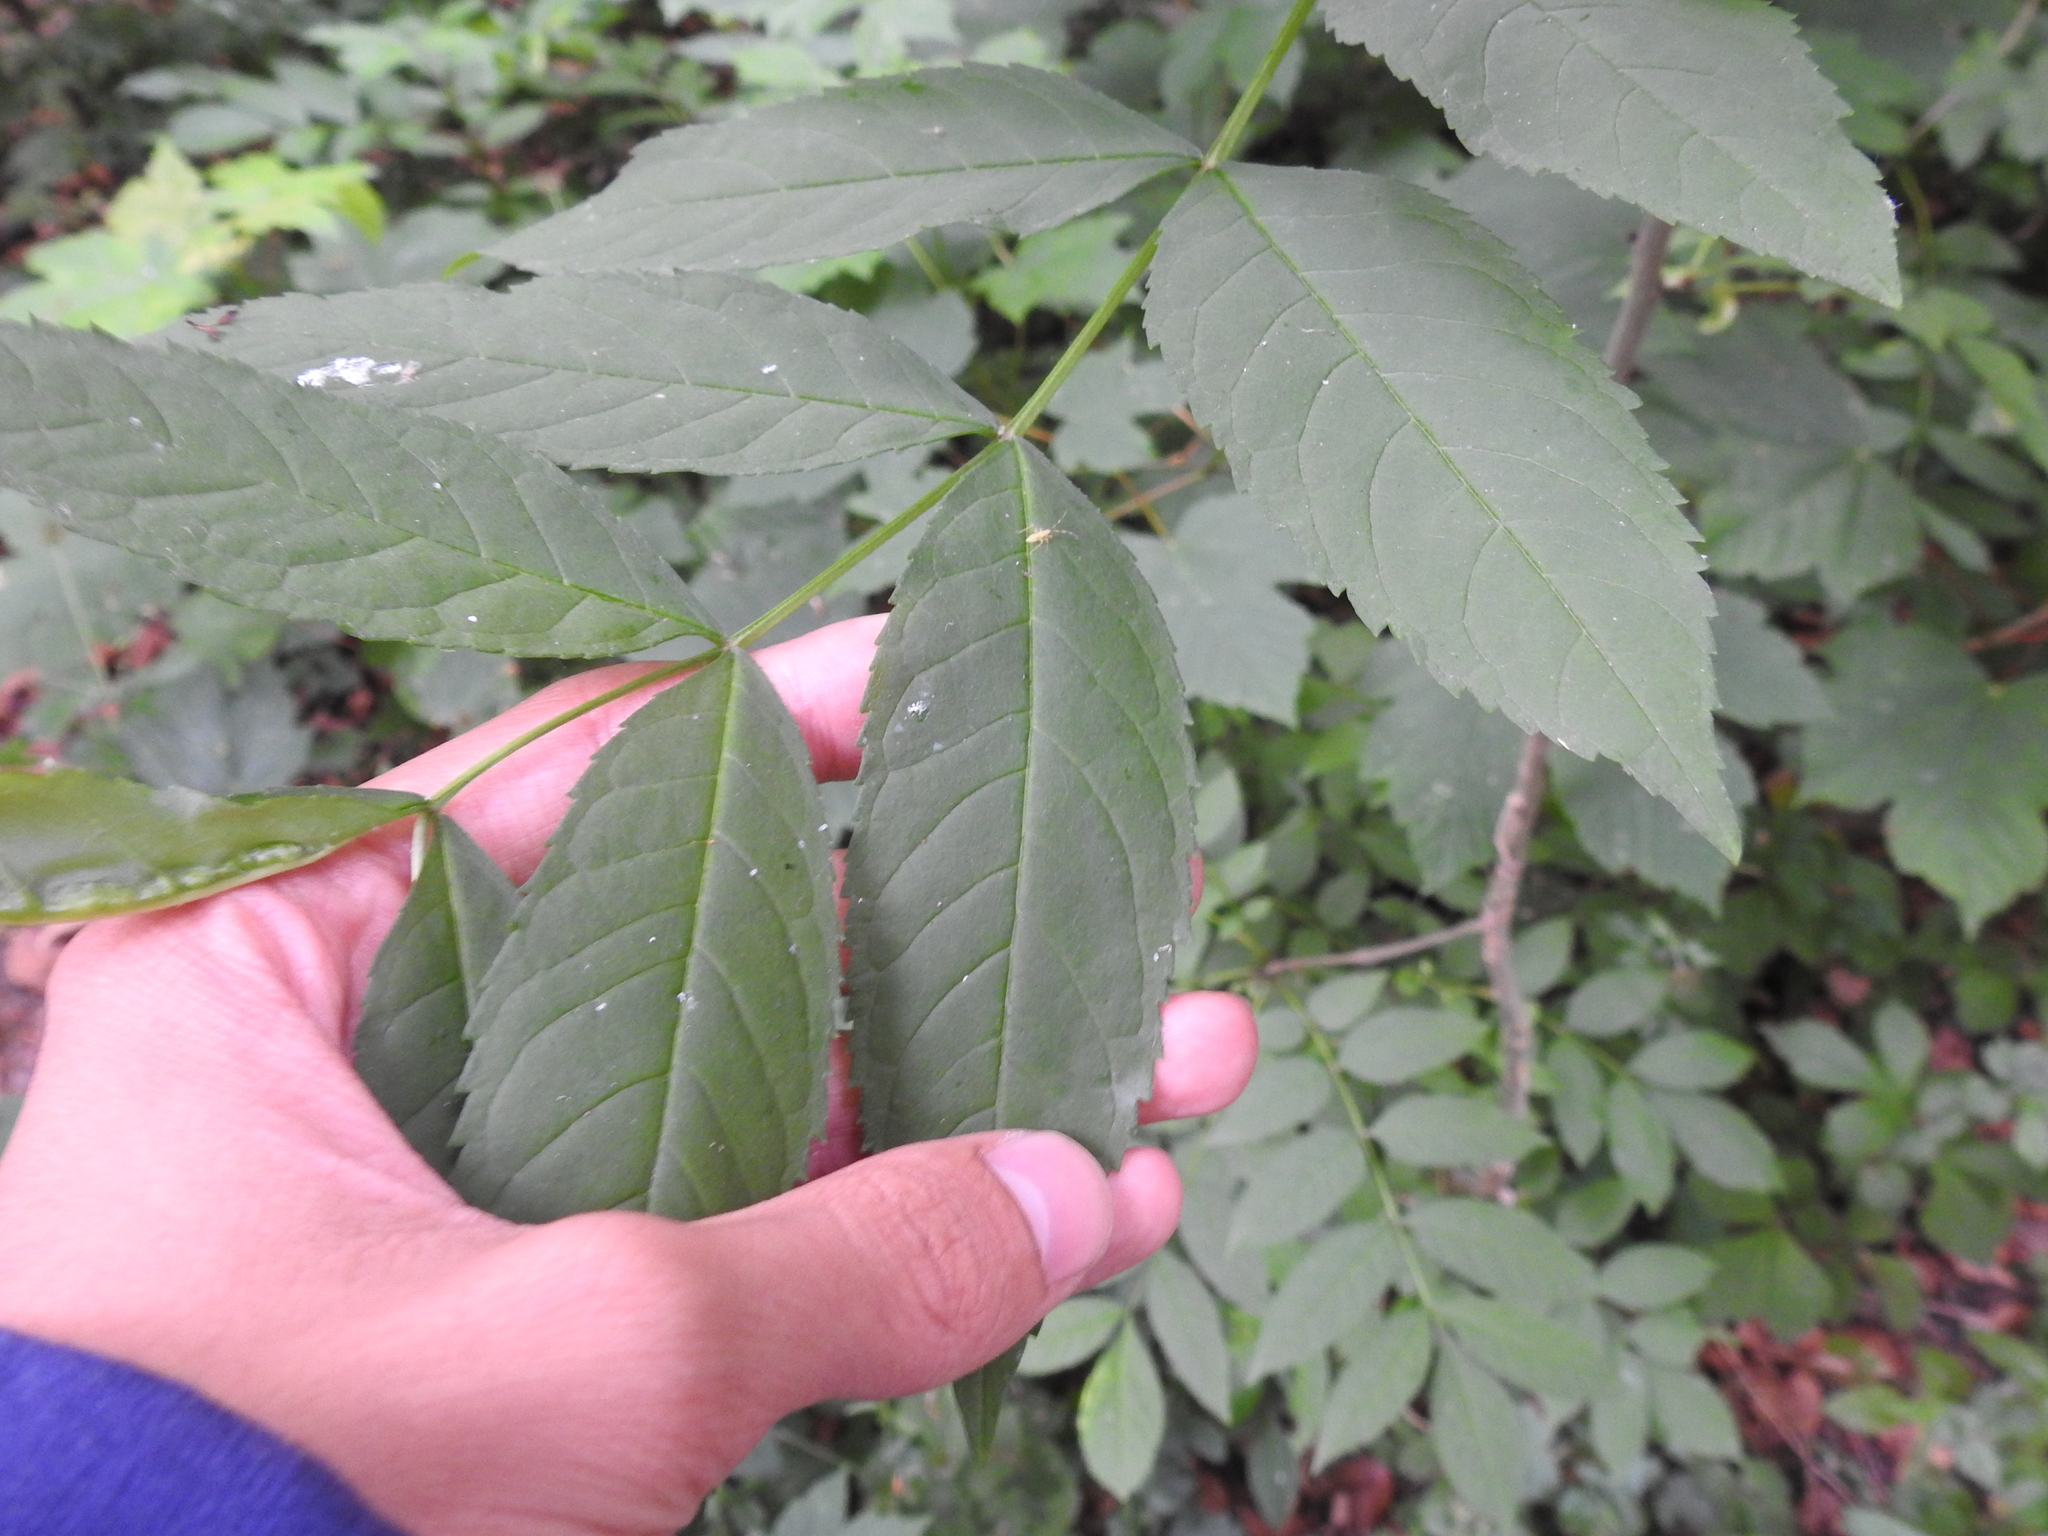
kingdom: Plantae
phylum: Tracheophyta
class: Magnoliopsida
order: Lamiales
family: Oleaceae
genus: Fraxinus
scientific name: Fraxinus excelsior
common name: European ash
